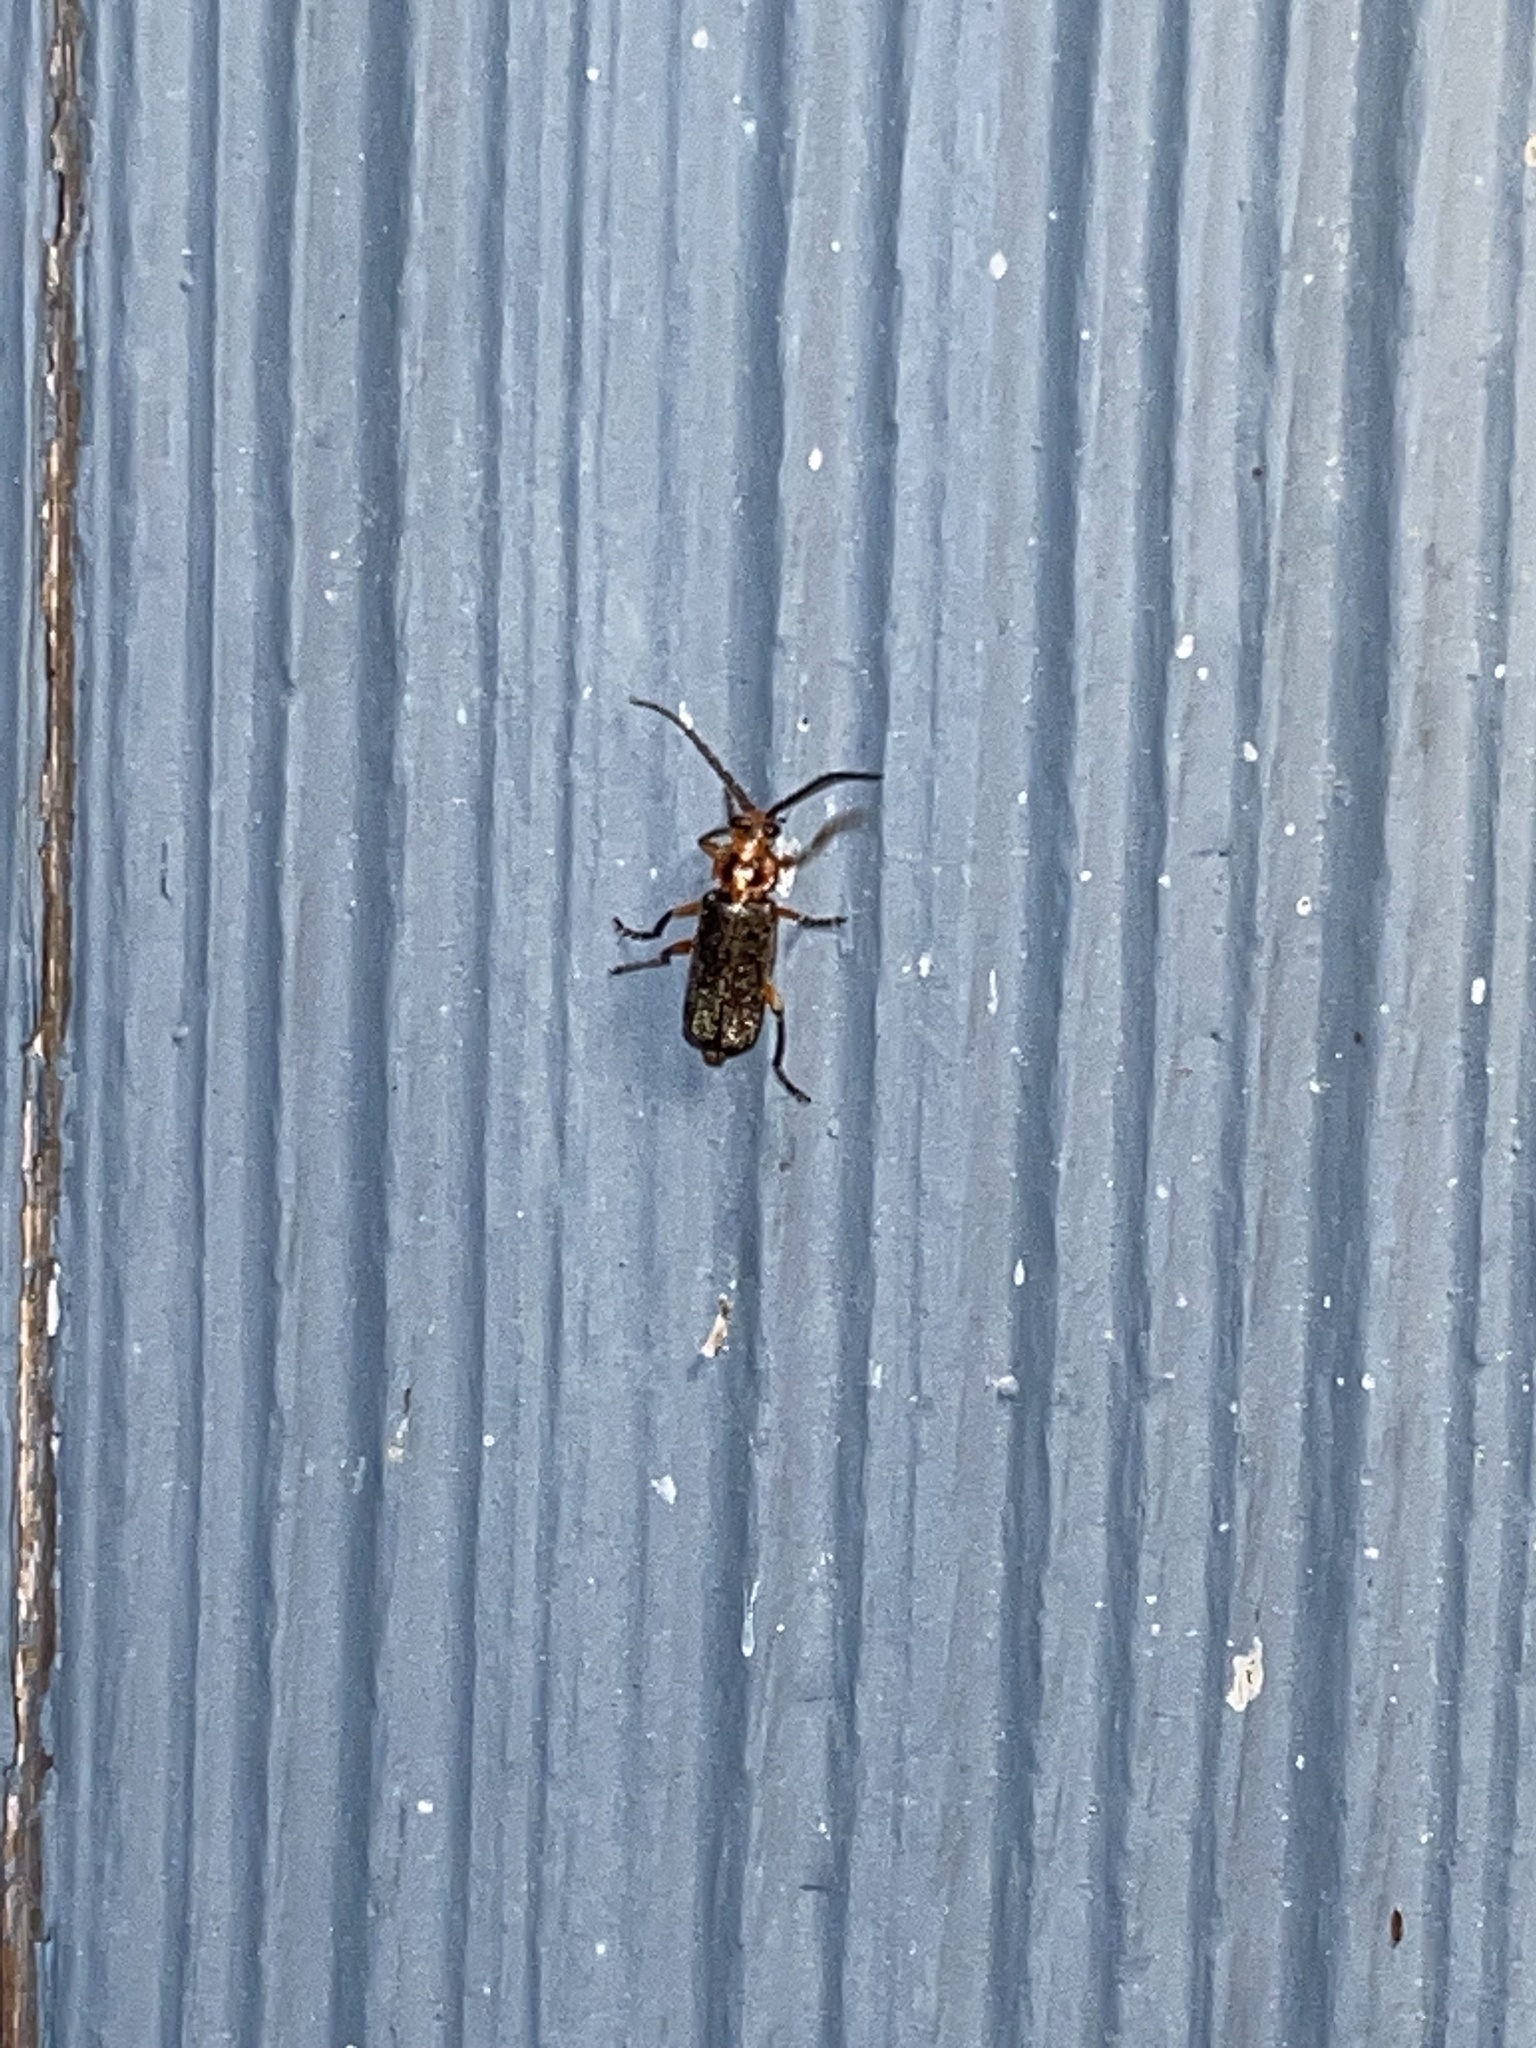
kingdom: Animalia
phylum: Arthropoda
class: Insecta
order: Coleoptera
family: Cantharidae
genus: Atalantycha
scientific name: Atalantycha bilineata
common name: Two-lined leatherwing
